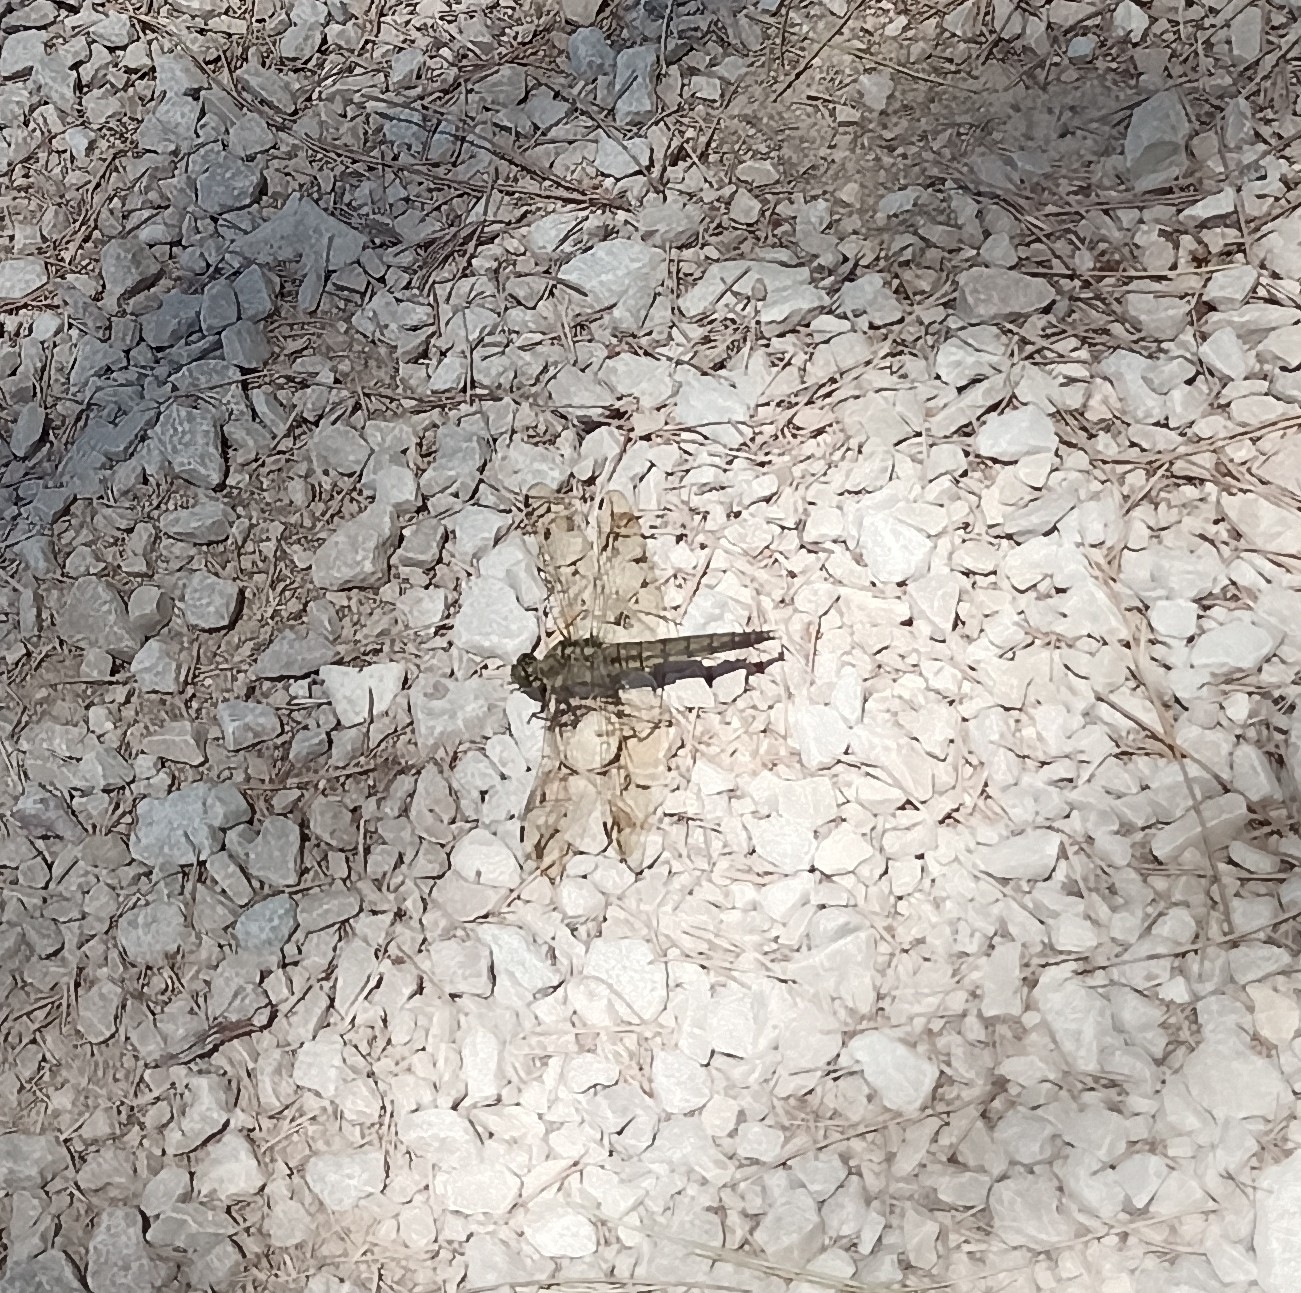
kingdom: Animalia
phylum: Arthropoda
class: Insecta
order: Odonata
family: Libellulidae
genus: Orthetrum
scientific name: Orthetrum cancellatum
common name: Black-tailed skimmer
